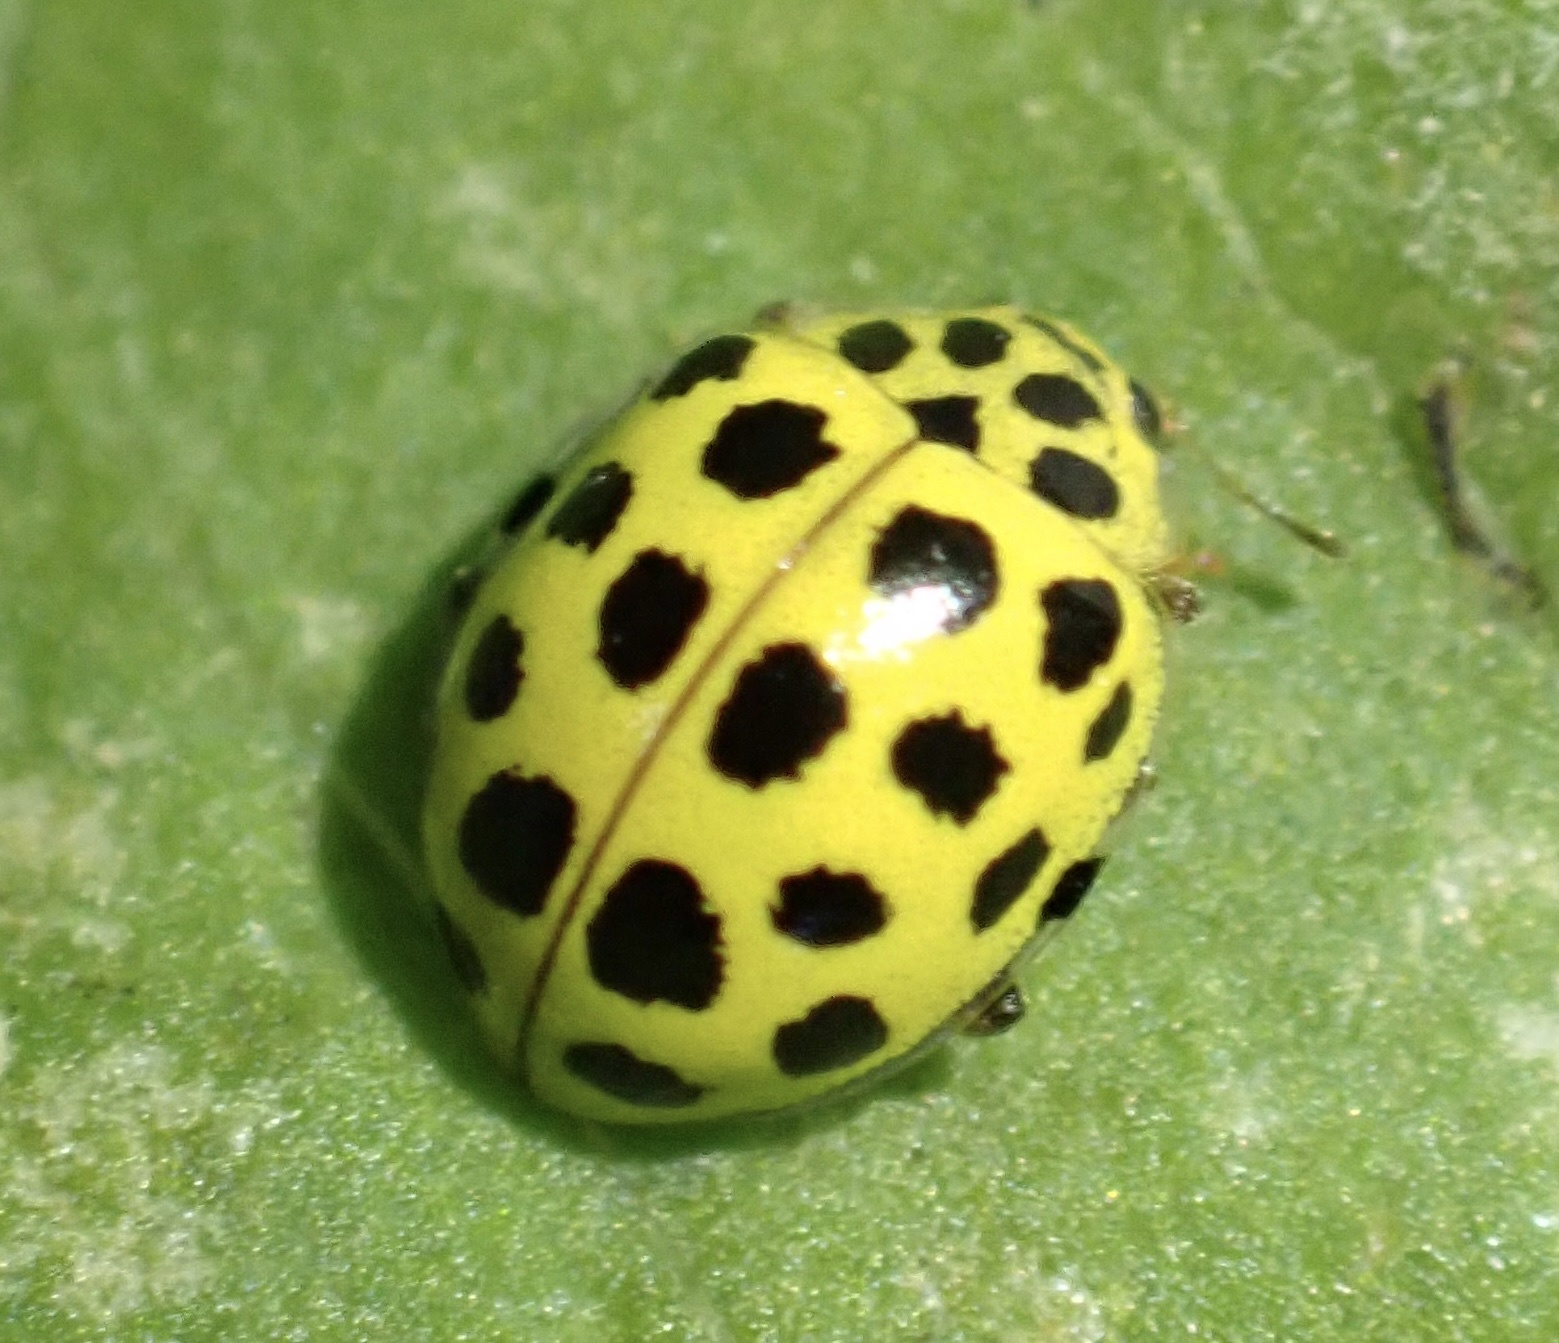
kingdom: Animalia
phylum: Arthropoda
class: Insecta
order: Coleoptera
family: Coccinellidae
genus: Psyllobora
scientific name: Psyllobora vigintiduopunctata
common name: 22-spot ladybird
